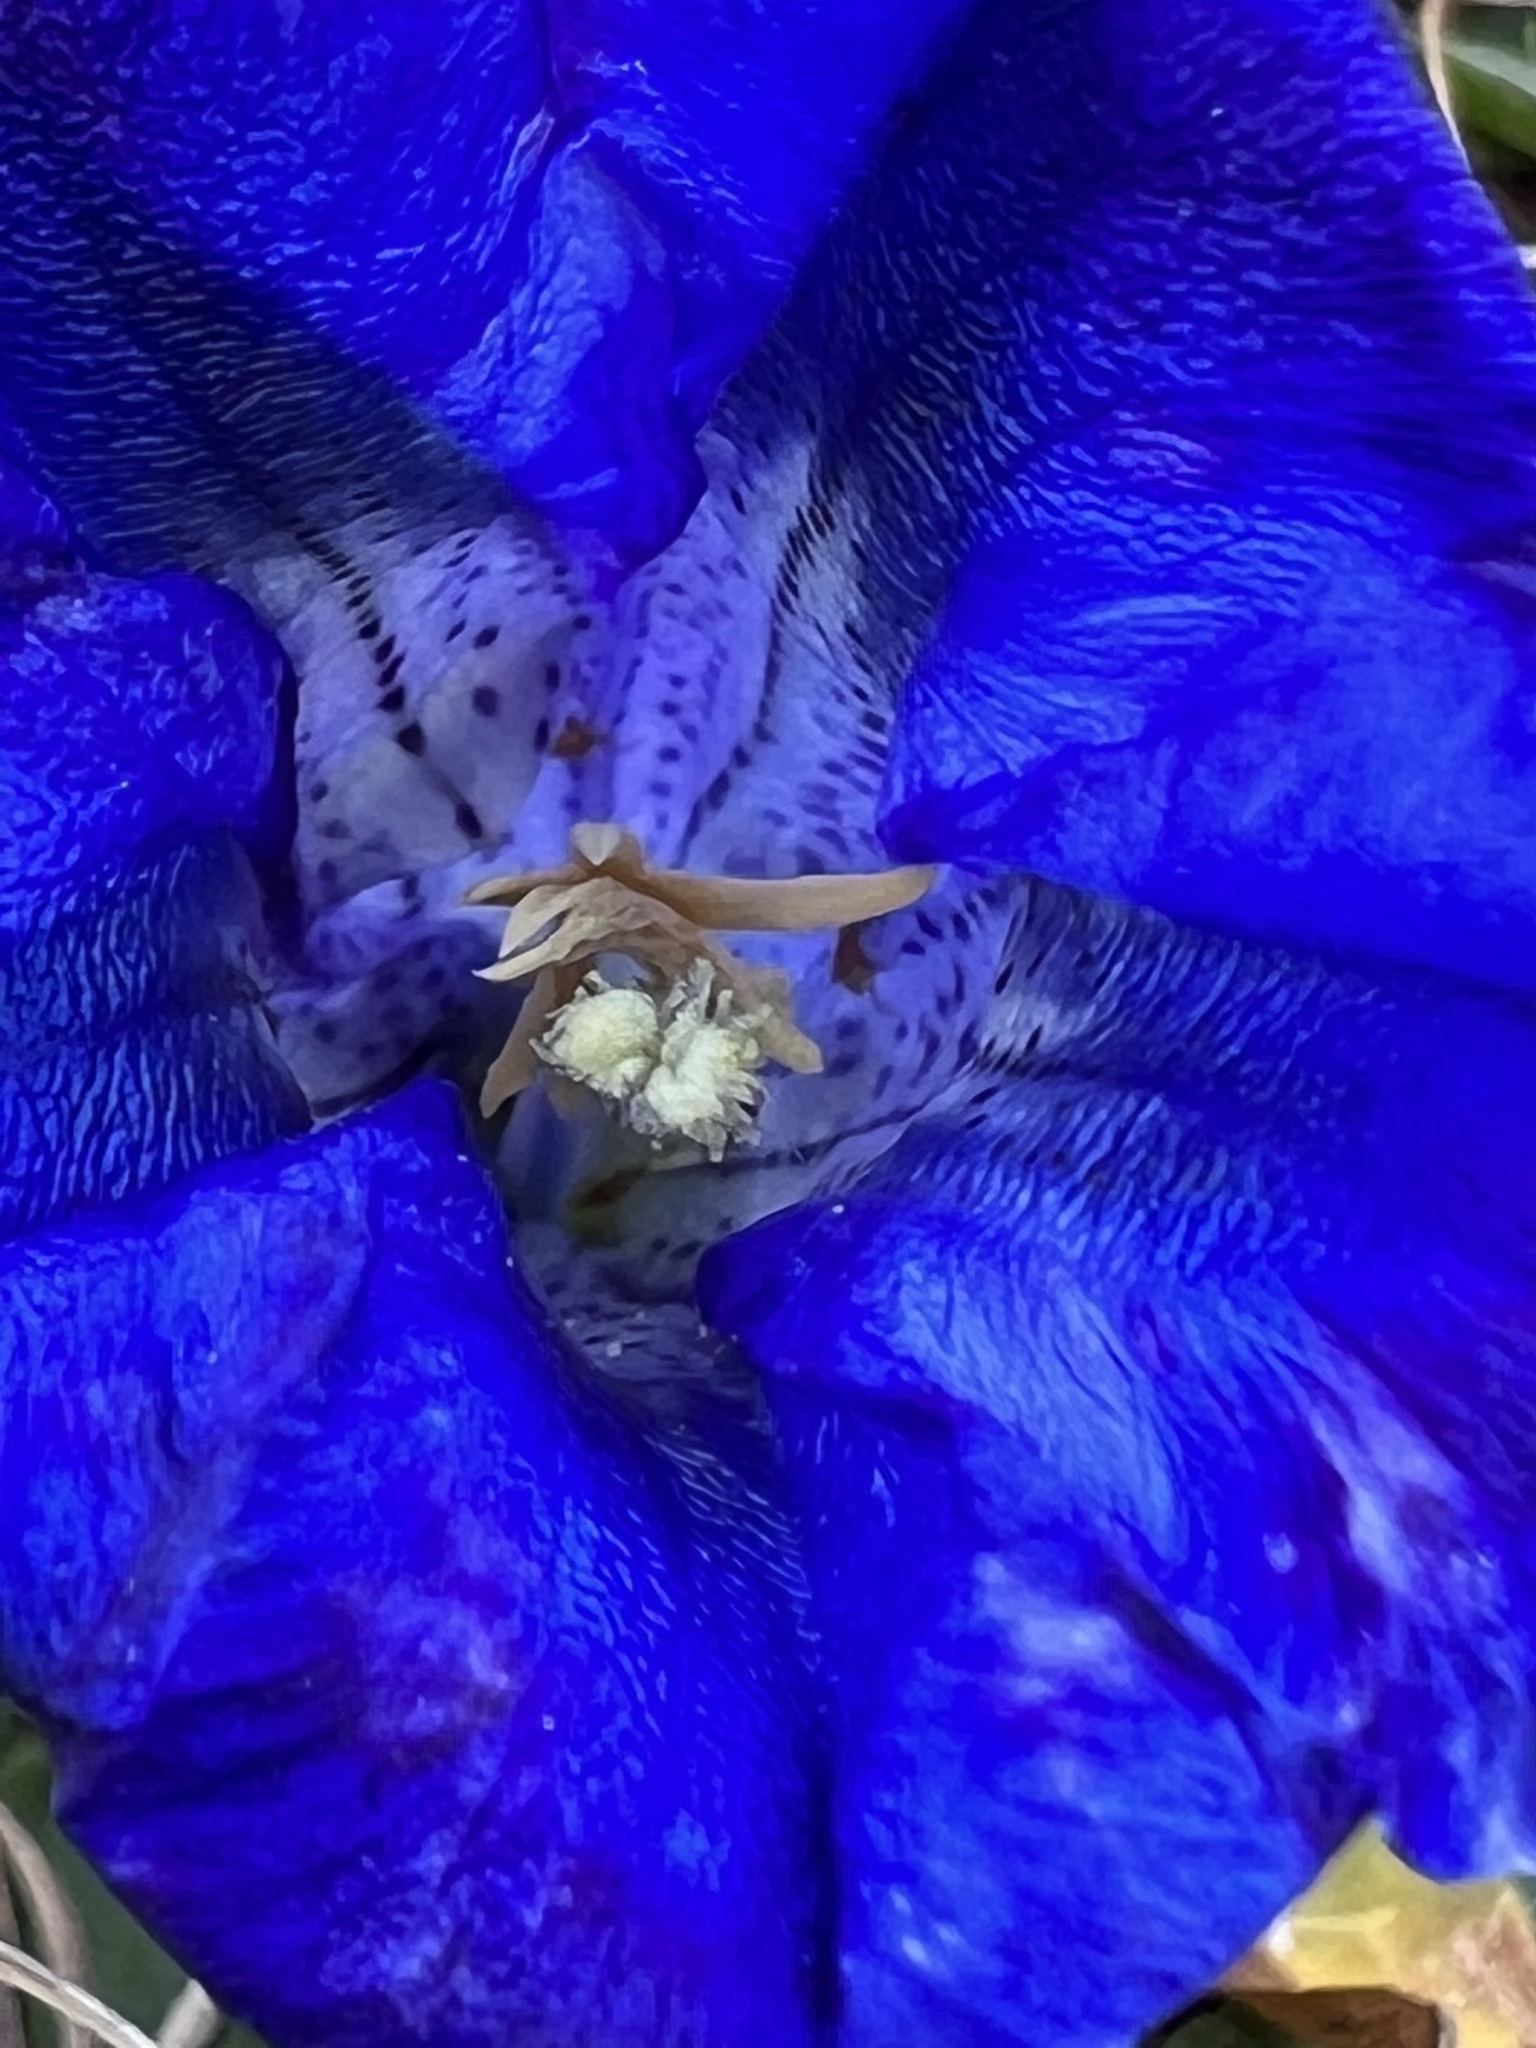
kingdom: Plantae
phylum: Tracheophyta
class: Magnoliopsida
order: Gentianales
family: Gentianaceae
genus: Gentiana
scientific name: Gentiana clusii
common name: Trumpet gentian
